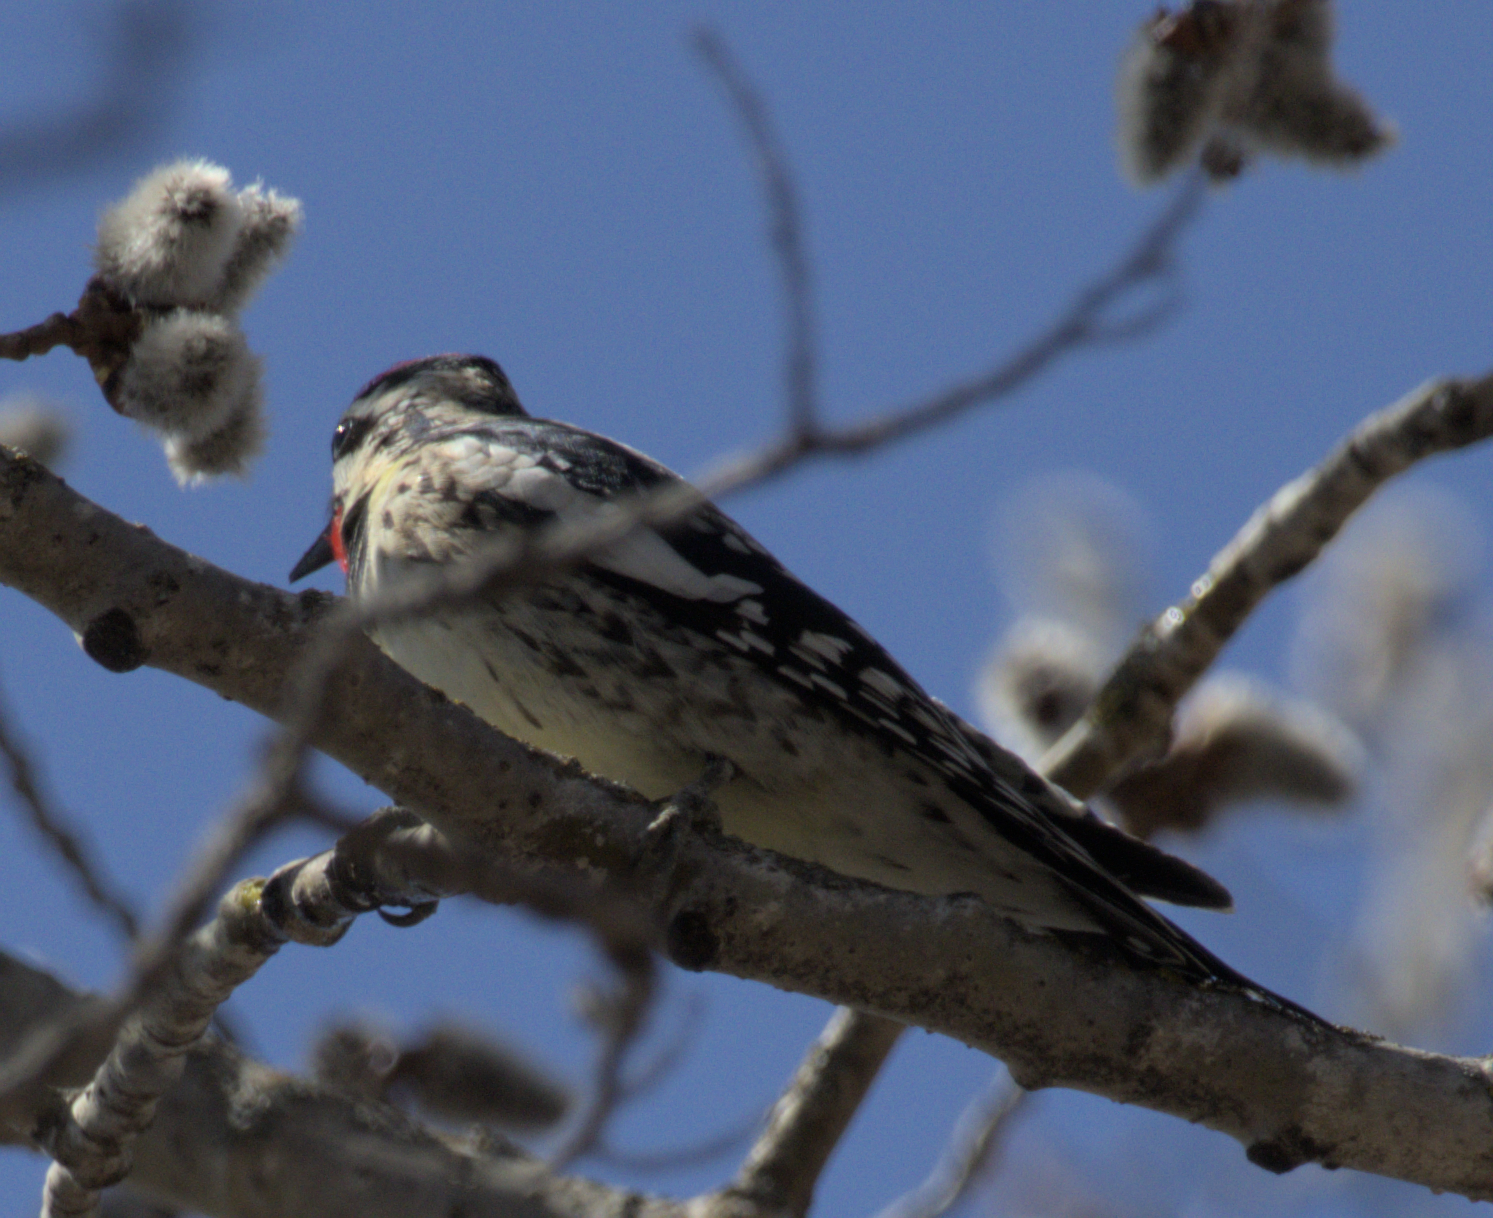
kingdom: Animalia
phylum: Chordata
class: Aves
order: Piciformes
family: Picidae
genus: Sphyrapicus
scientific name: Sphyrapicus varius
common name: Yellow-bellied sapsucker
